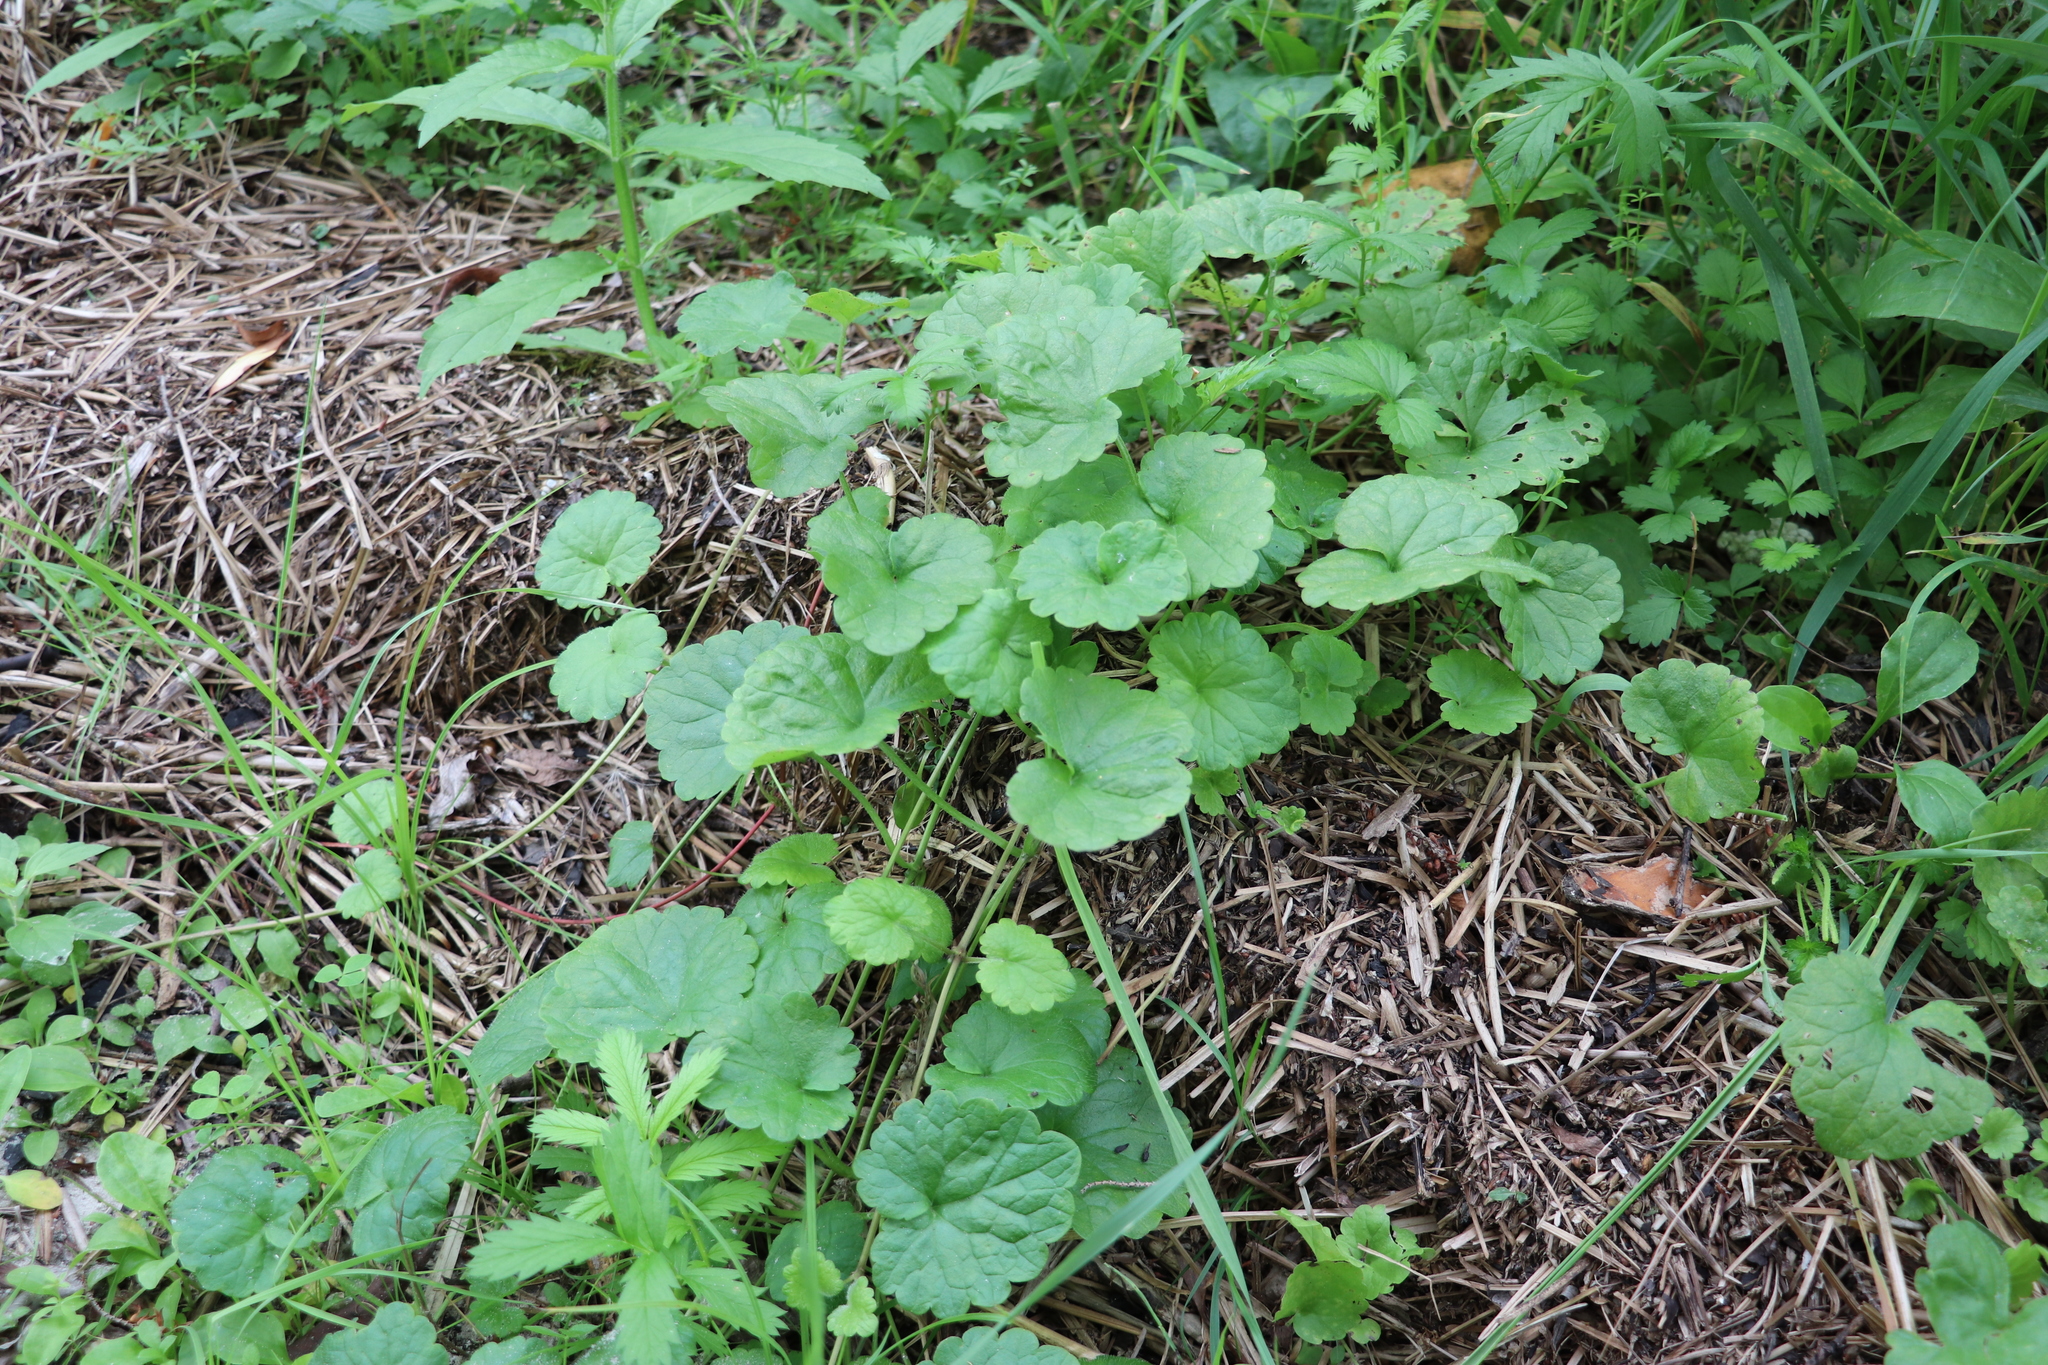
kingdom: Plantae
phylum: Tracheophyta
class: Magnoliopsida
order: Lamiales
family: Lamiaceae
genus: Glechoma
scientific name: Glechoma hederacea
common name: Ground ivy
